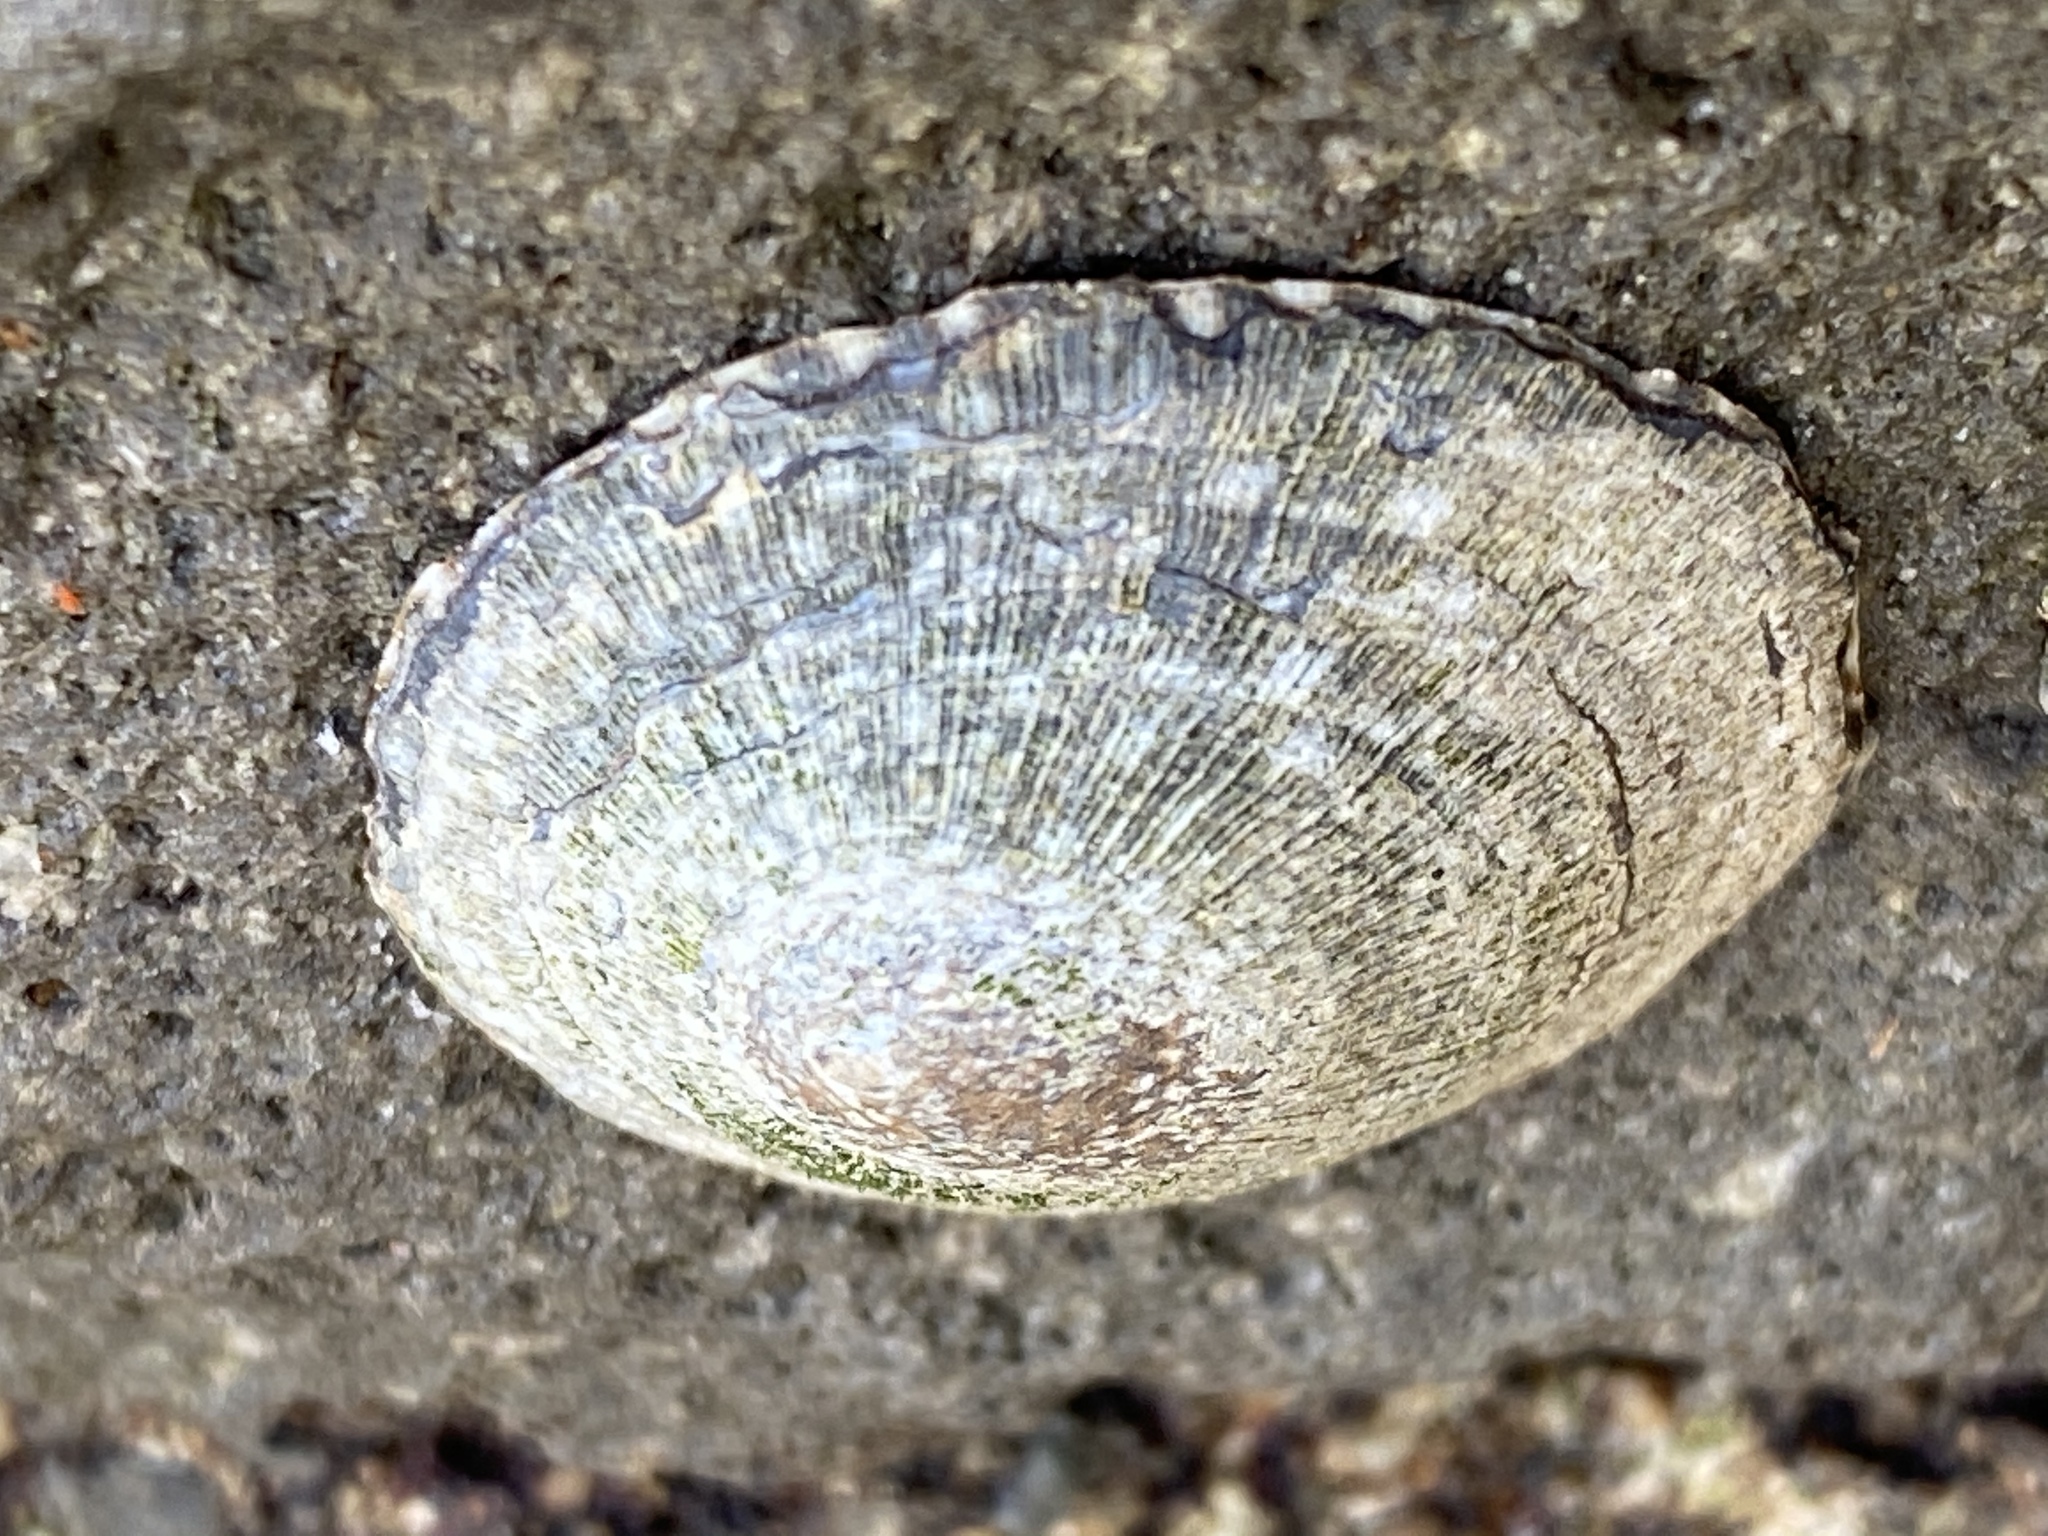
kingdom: Animalia
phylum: Mollusca
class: Gastropoda
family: Lottiidae
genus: Lottia
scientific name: Lottia limatula
